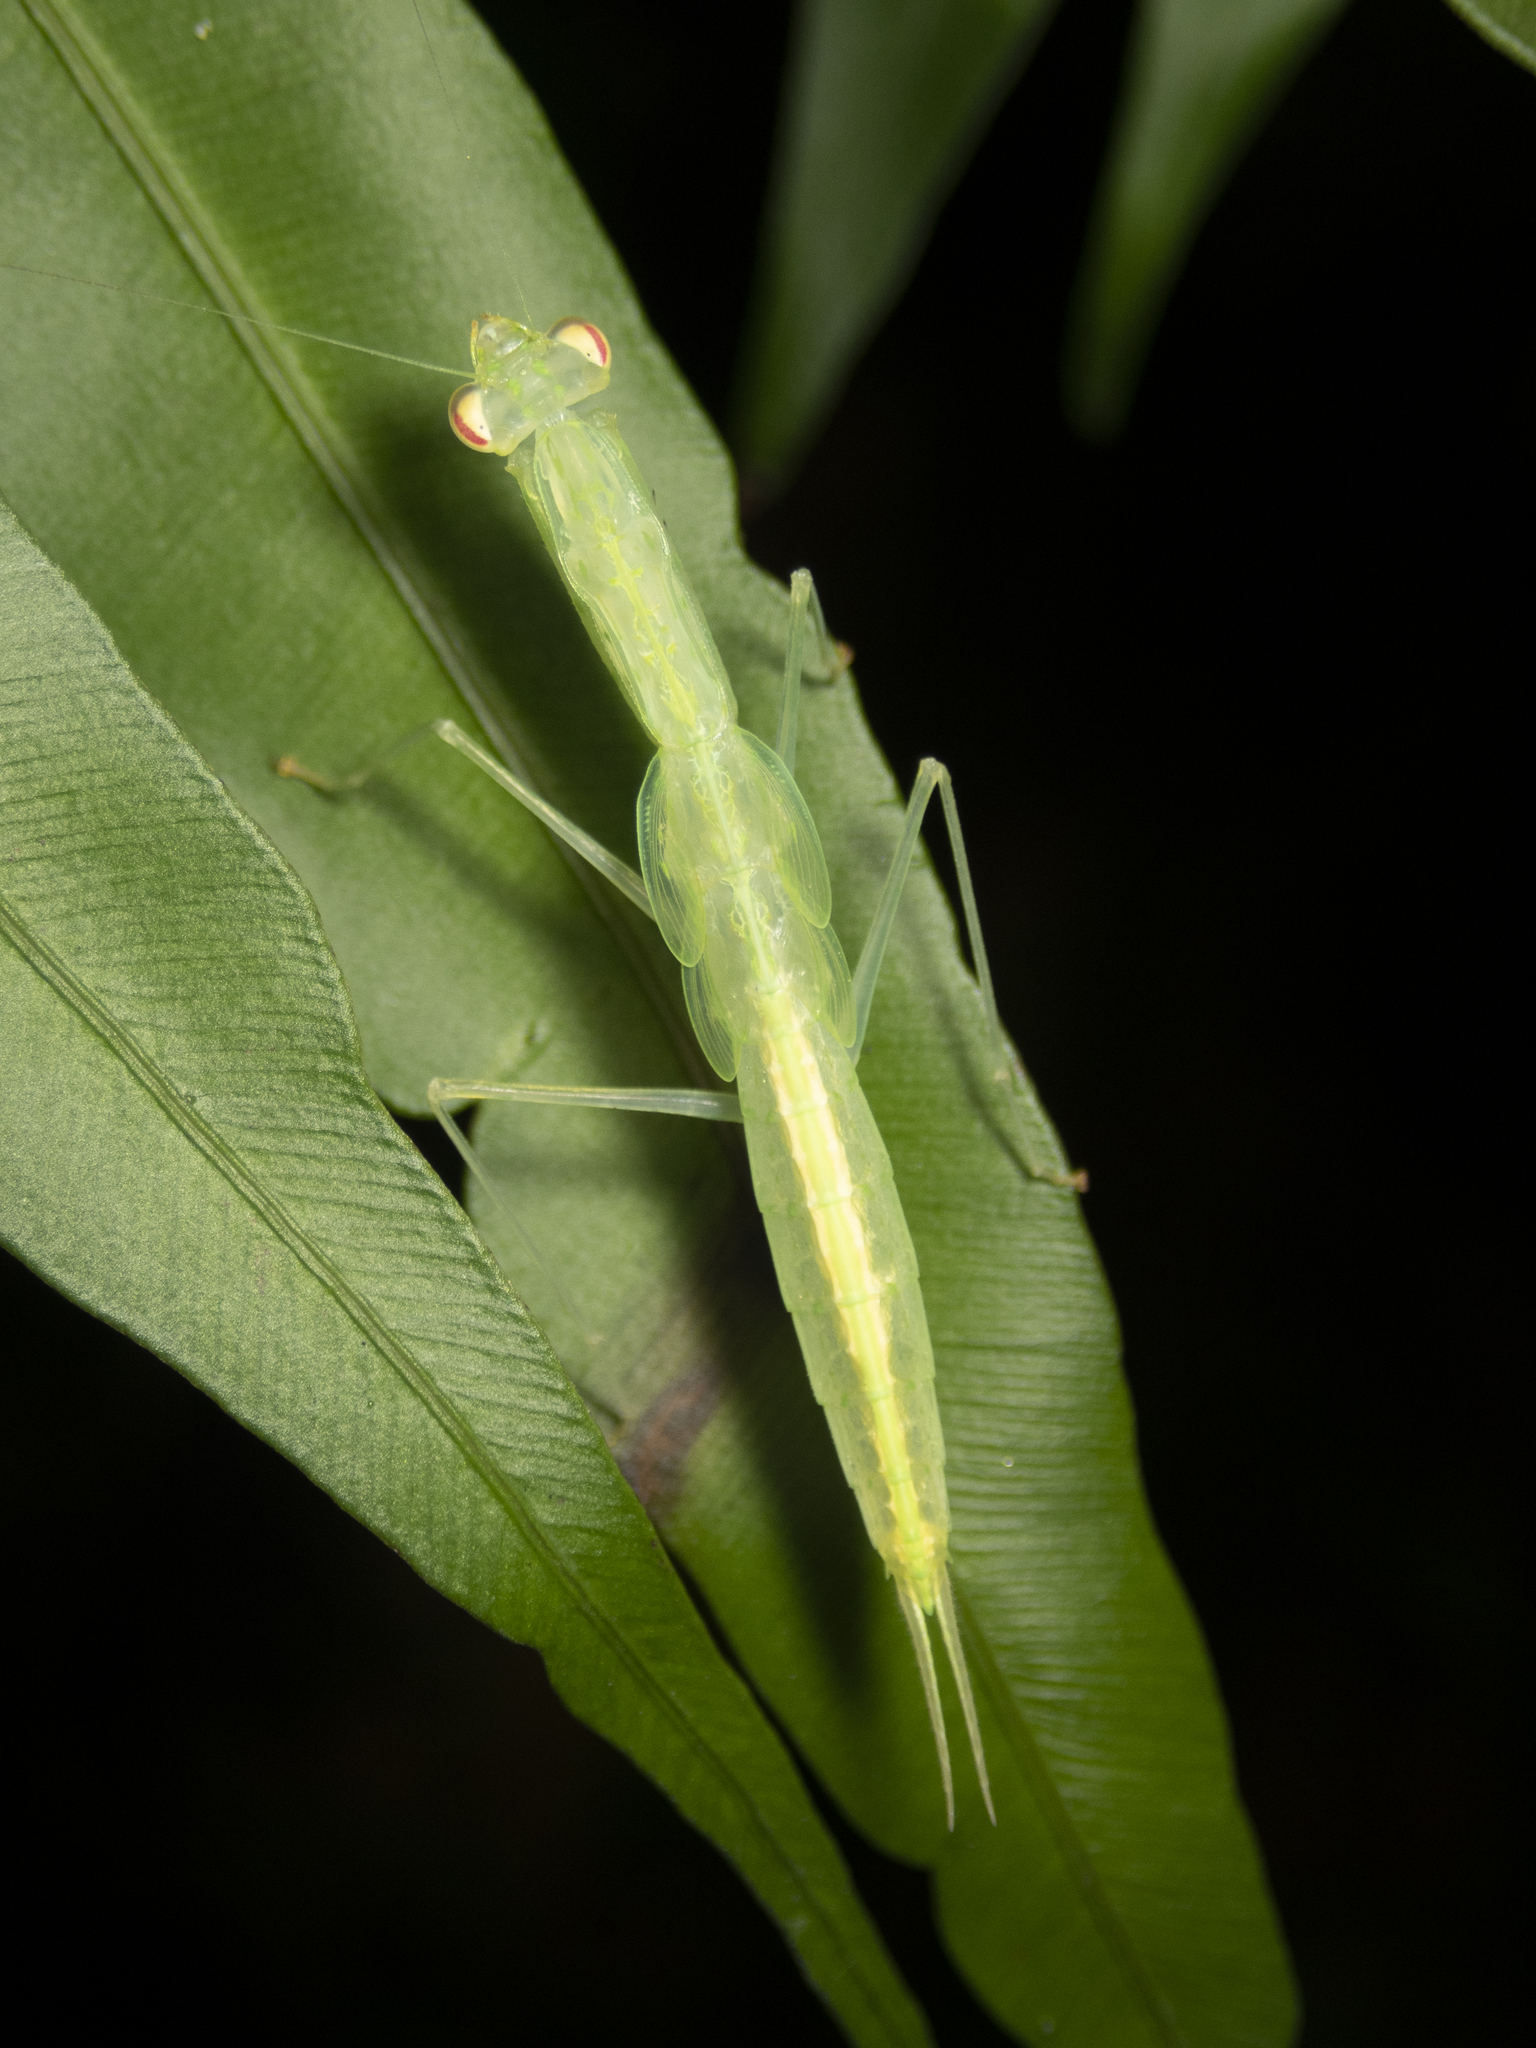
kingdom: Animalia
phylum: Arthropoda
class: Insecta
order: Mantodea
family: Nanomantidae
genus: Sinomantis
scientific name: Sinomantis denticulata
